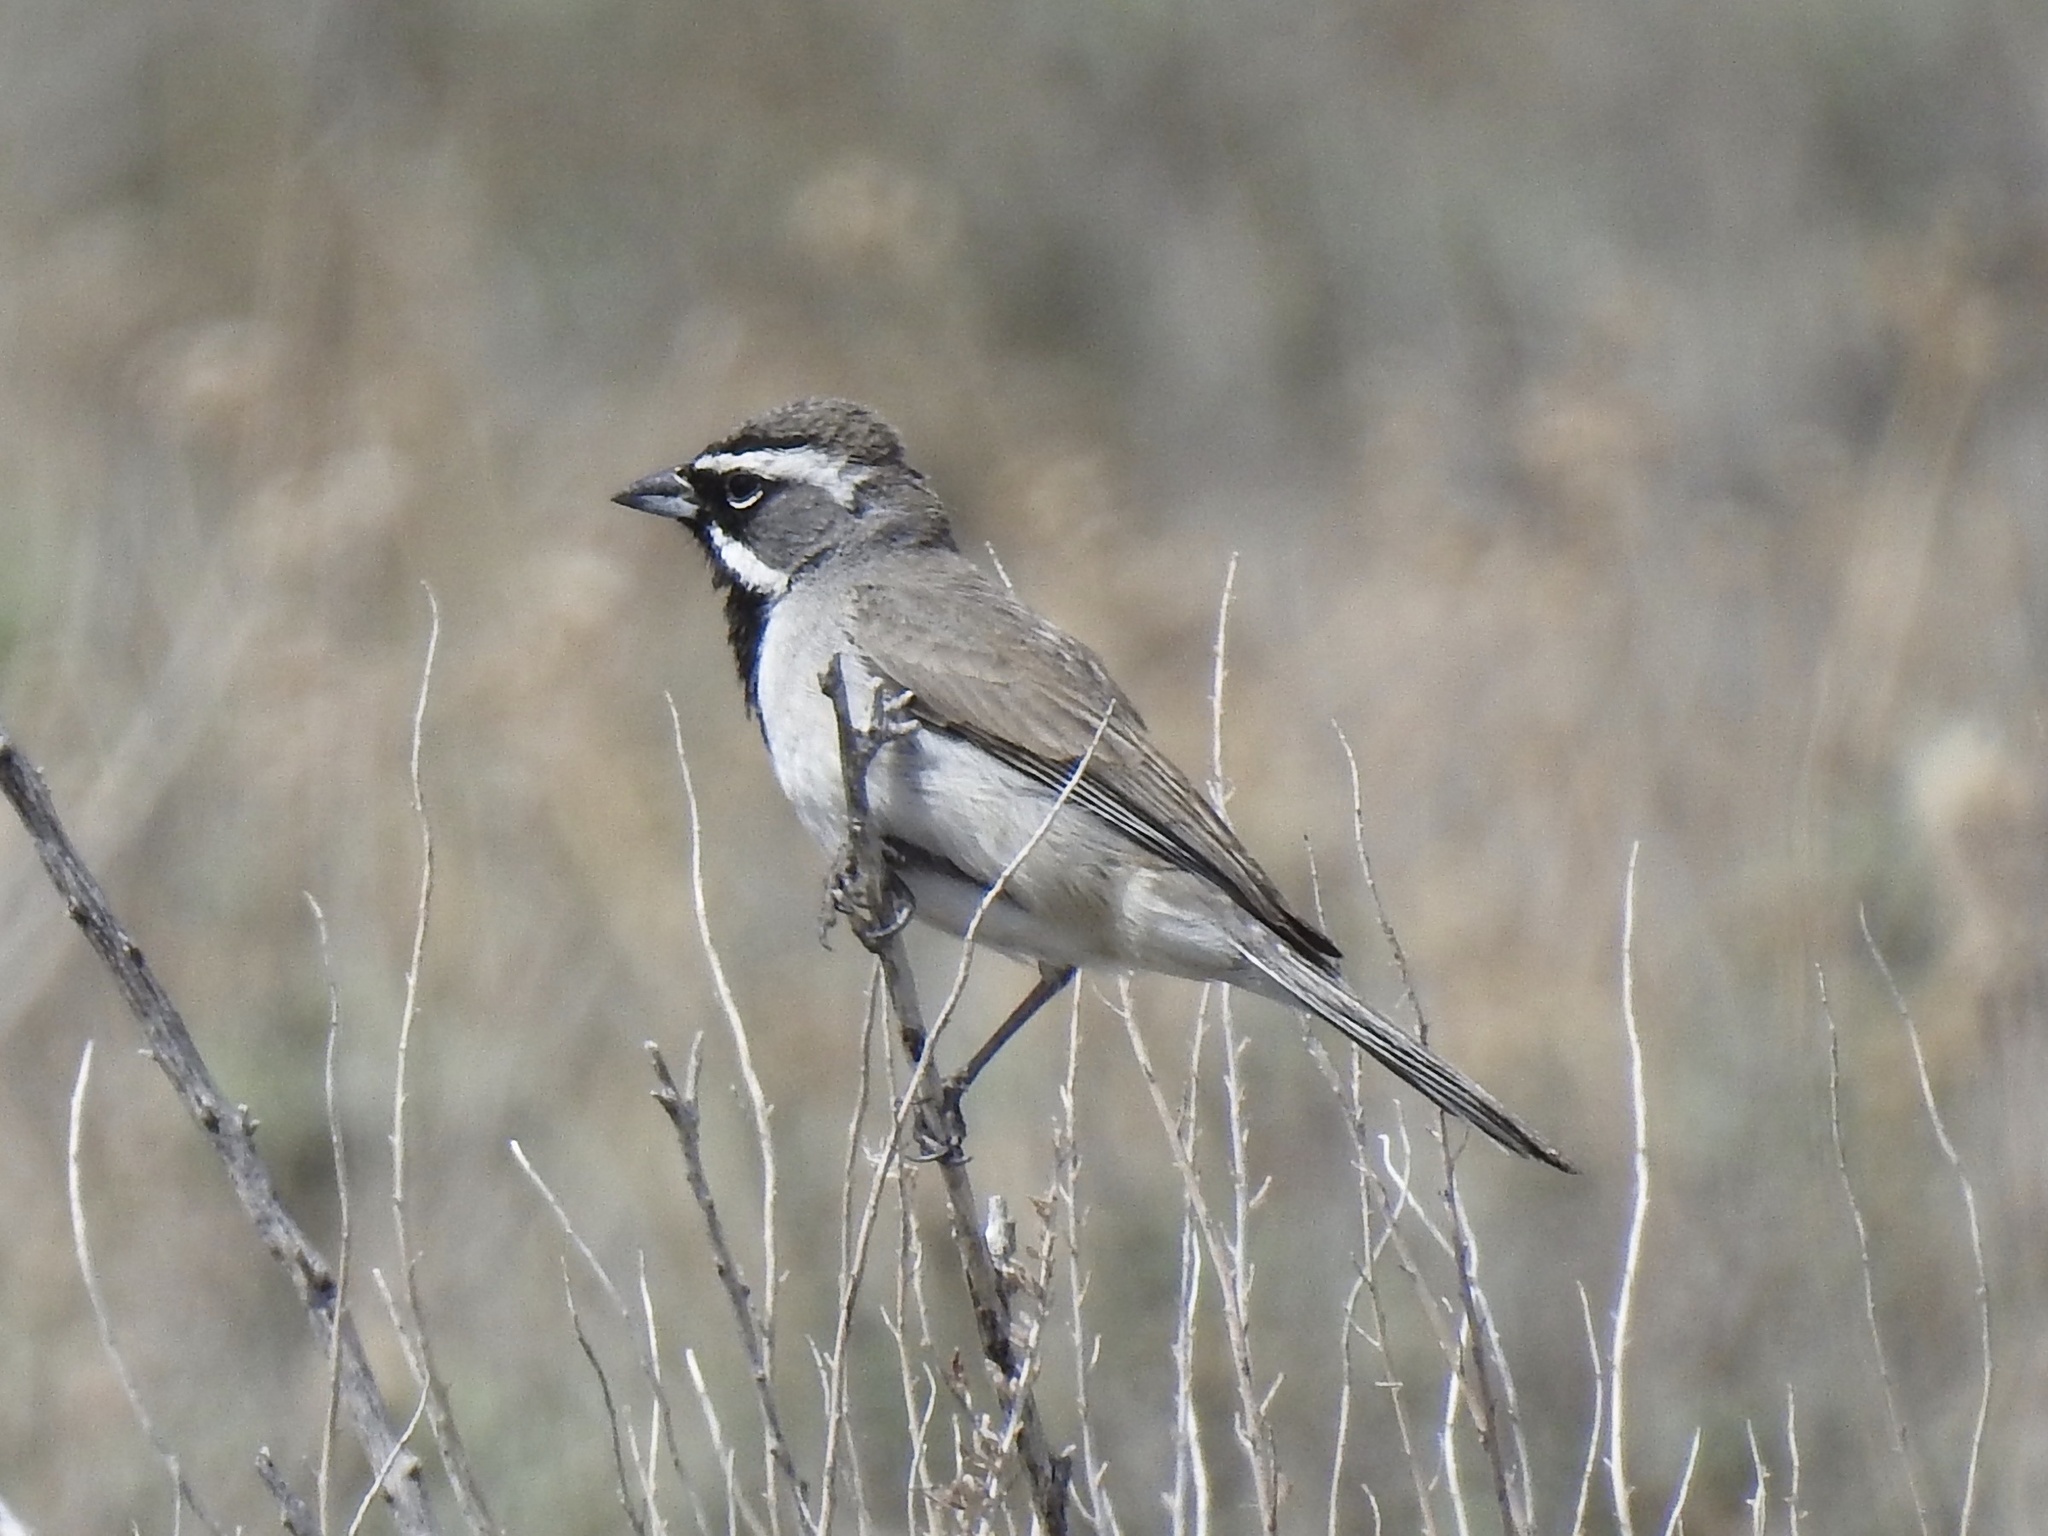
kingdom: Animalia
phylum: Chordata
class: Aves
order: Passeriformes
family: Passerellidae
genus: Amphispiza
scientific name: Amphispiza bilineata
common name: Black-throated sparrow
